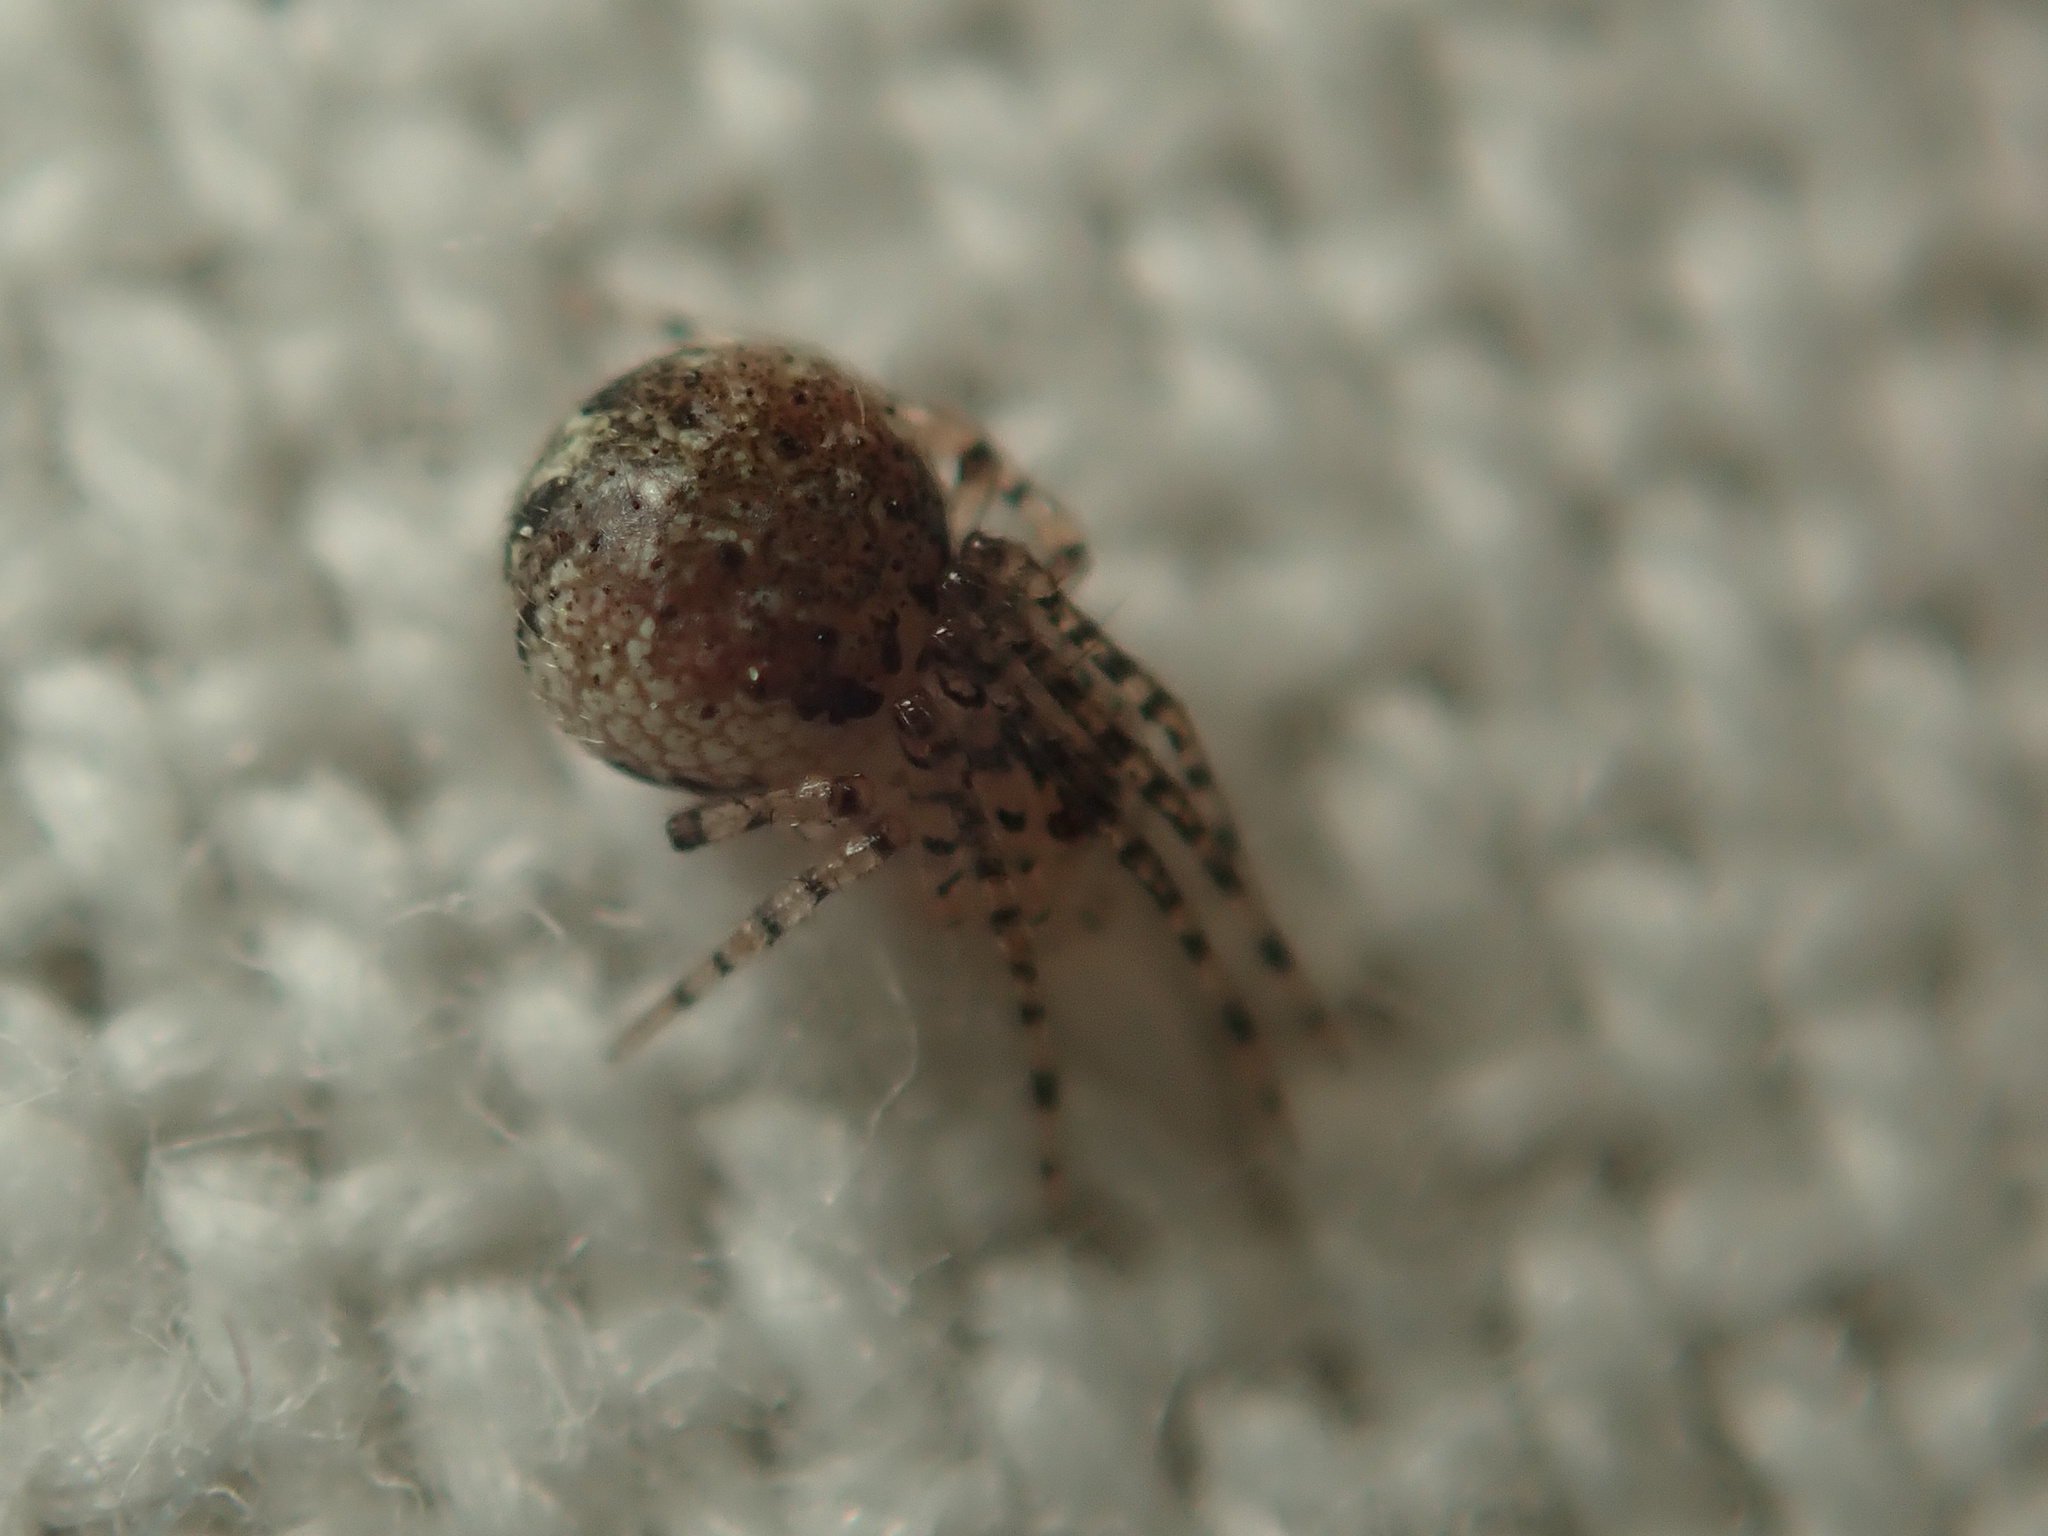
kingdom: Animalia
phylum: Arthropoda
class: Arachnida
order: Araneae
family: Theridiidae
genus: Platnickina
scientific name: Platnickina tincta
